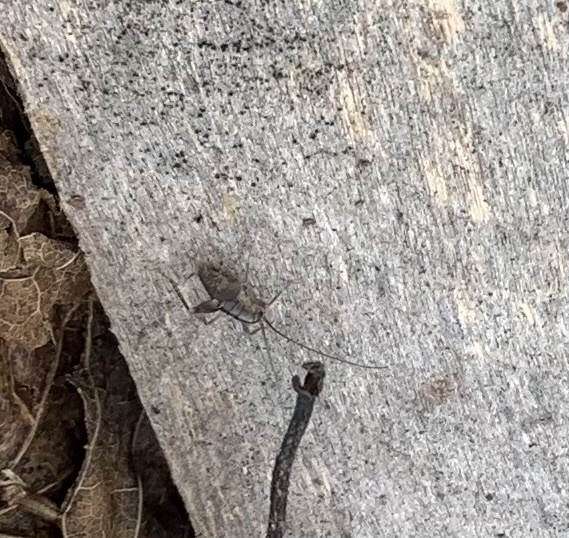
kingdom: Animalia
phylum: Arthropoda
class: Insecta
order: Orthoptera
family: Rhaphidophoridae
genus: Ceuthophilus
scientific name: Ceuthophilus
